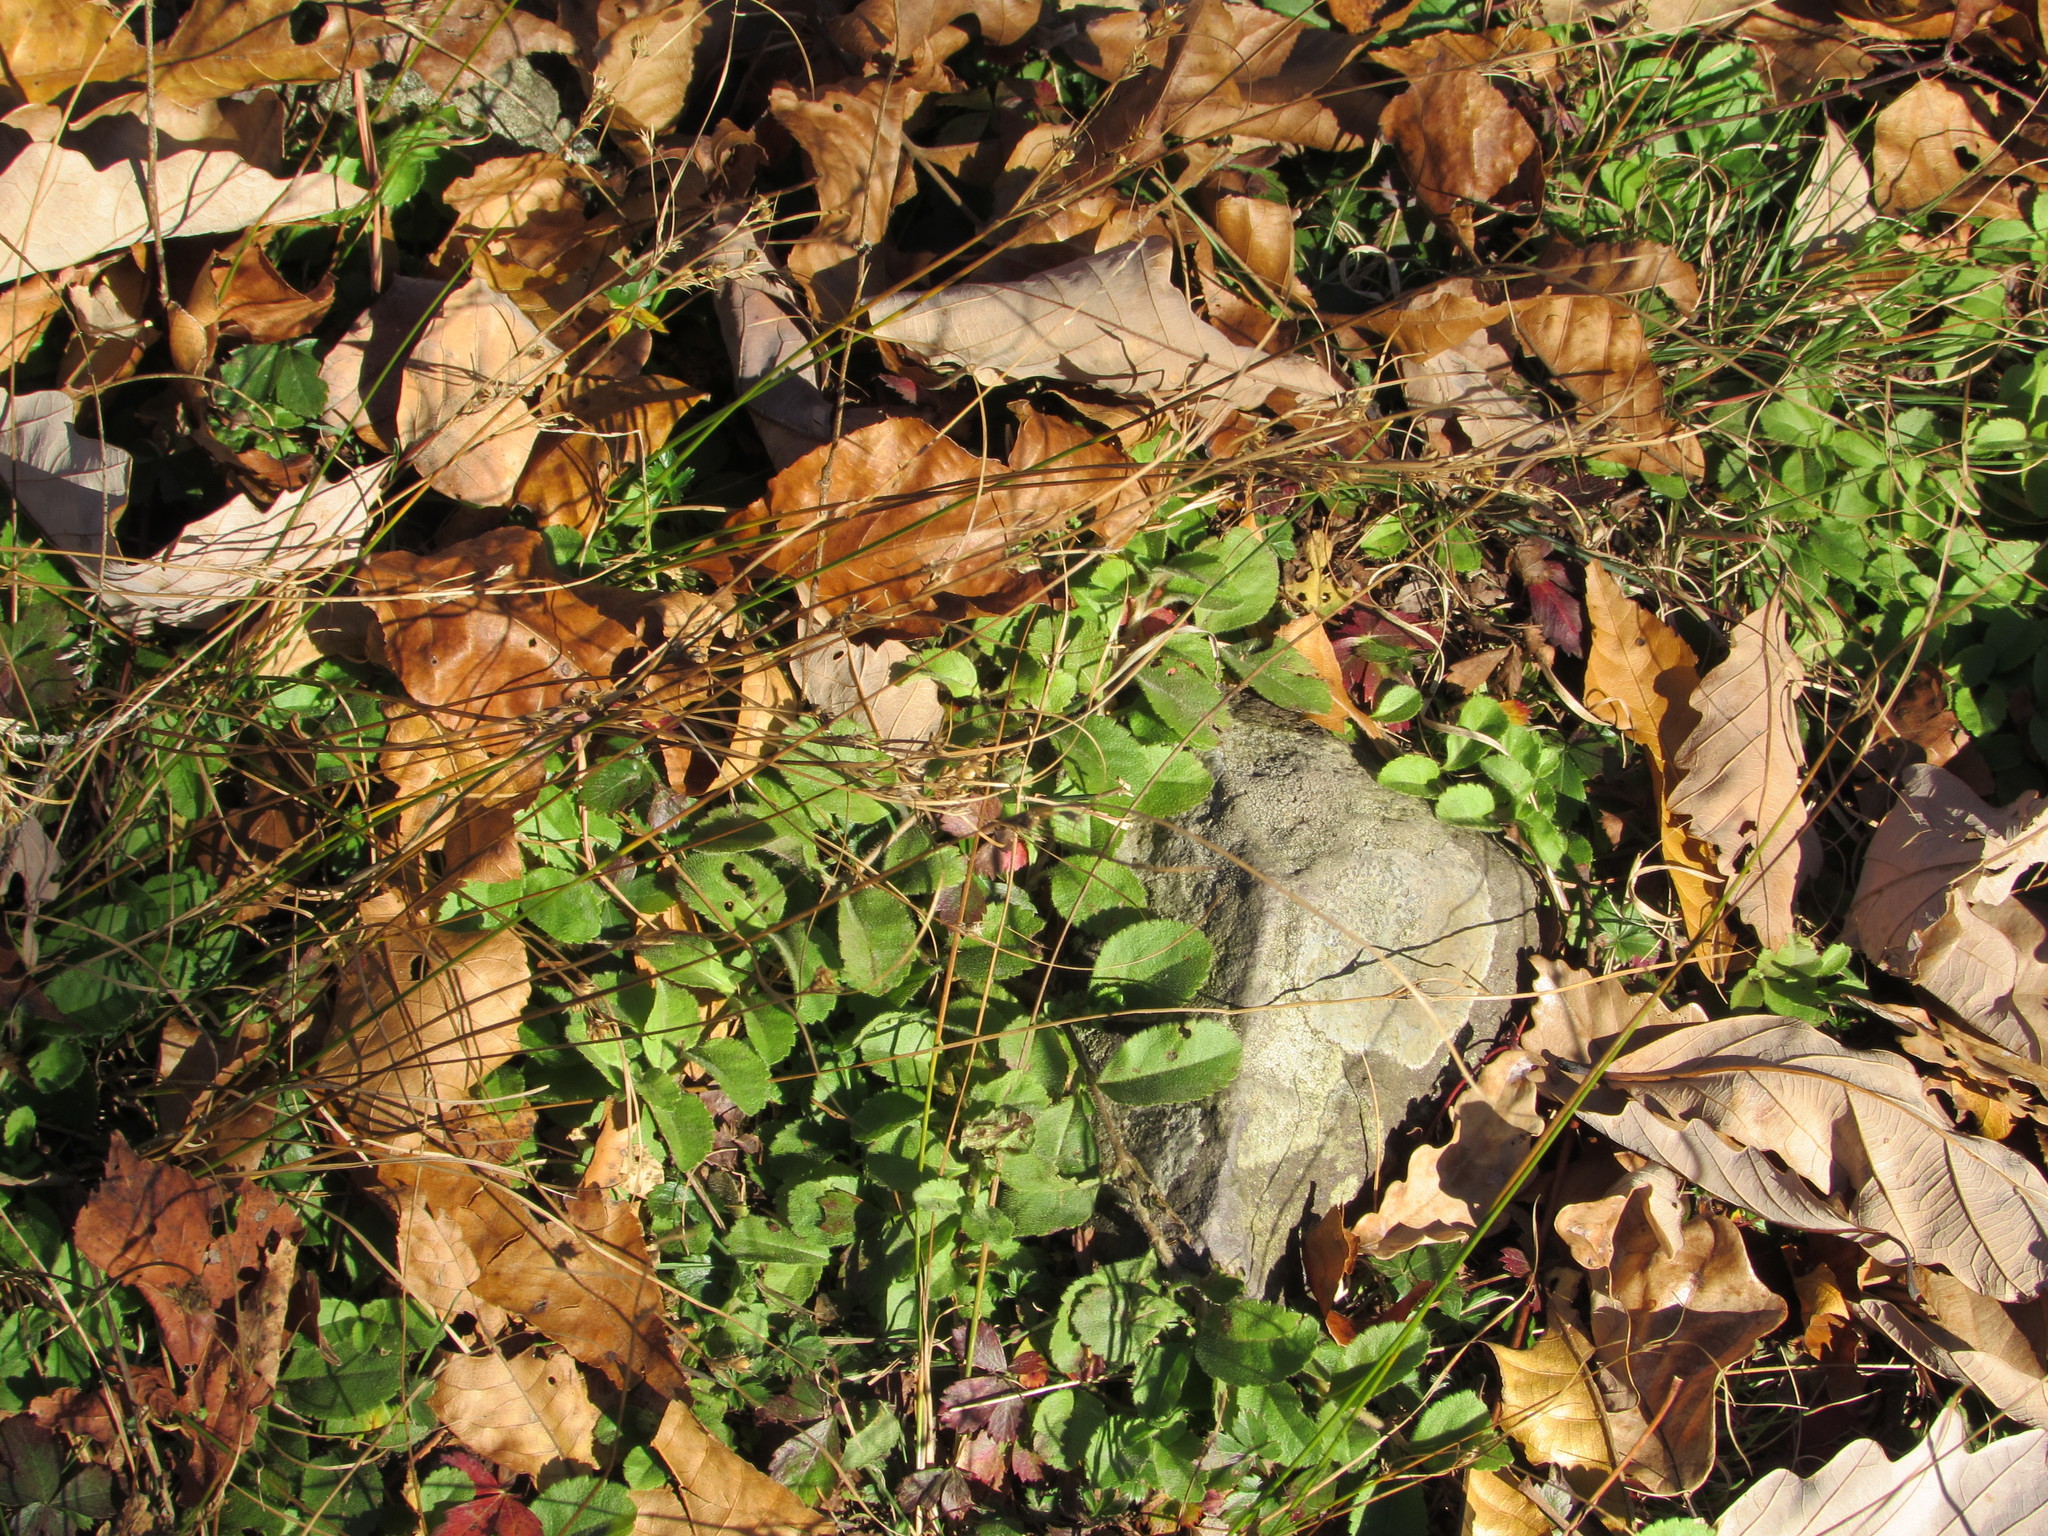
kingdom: Plantae
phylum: Tracheophyta
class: Magnoliopsida
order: Lamiales
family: Plantaginaceae
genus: Veronica
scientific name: Veronica officinalis
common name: Common speedwell
